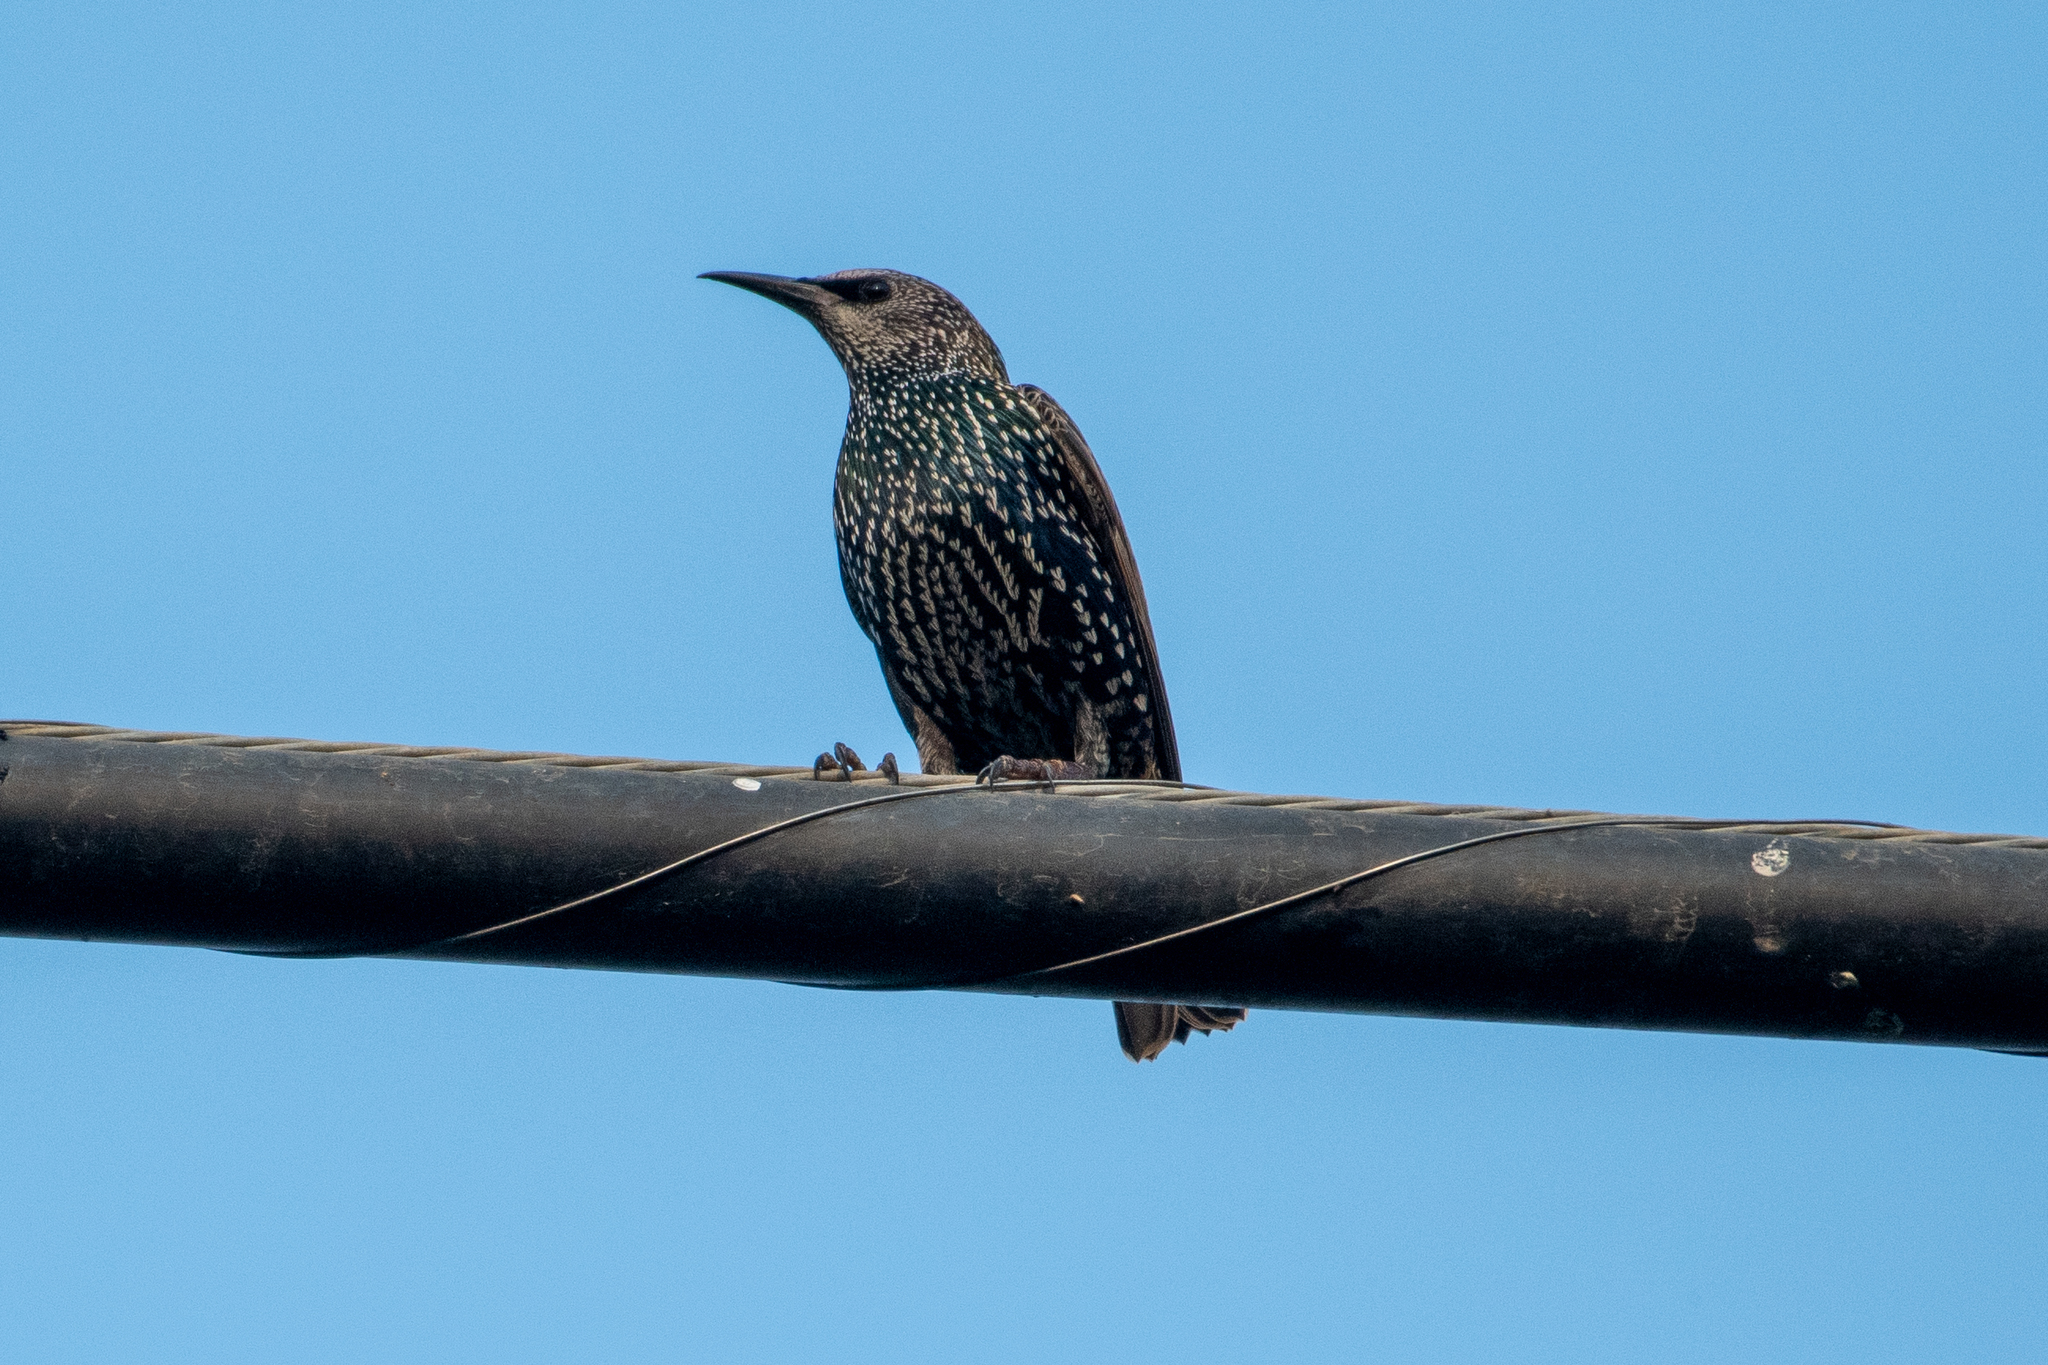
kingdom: Animalia
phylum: Chordata
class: Aves
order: Passeriformes
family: Sturnidae
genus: Sturnus
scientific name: Sturnus vulgaris
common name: Common starling
